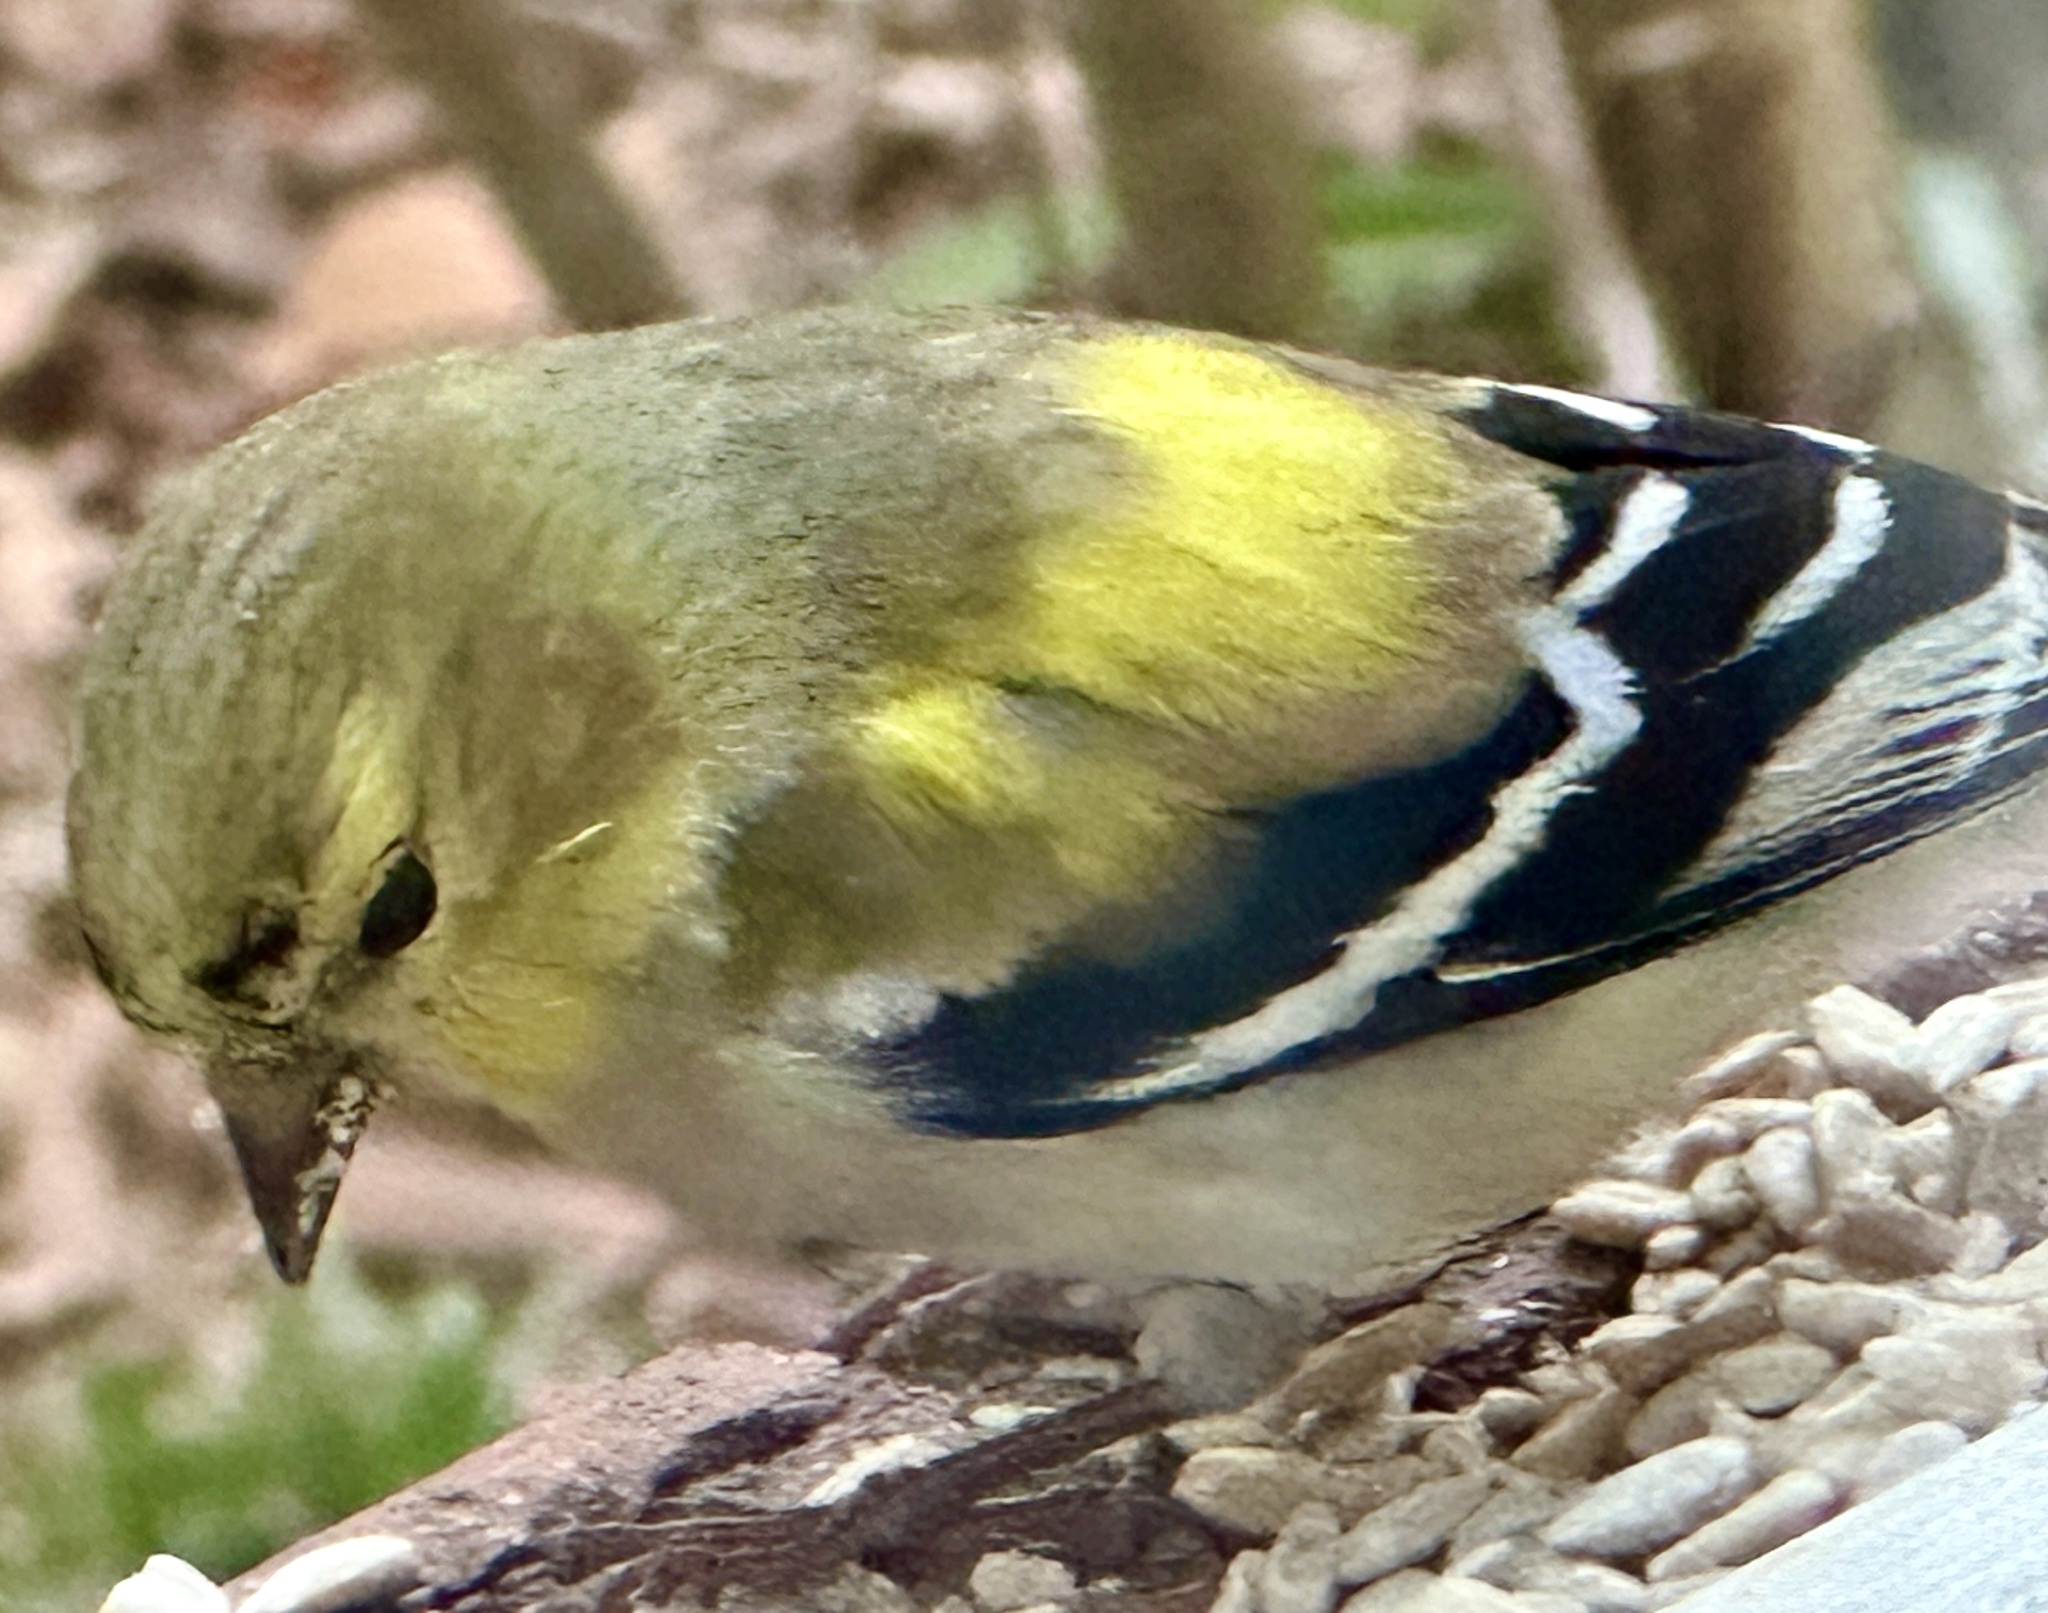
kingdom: Animalia
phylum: Chordata
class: Aves
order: Passeriformes
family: Fringillidae
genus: Spinus
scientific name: Spinus tristis
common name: American goldfinch
